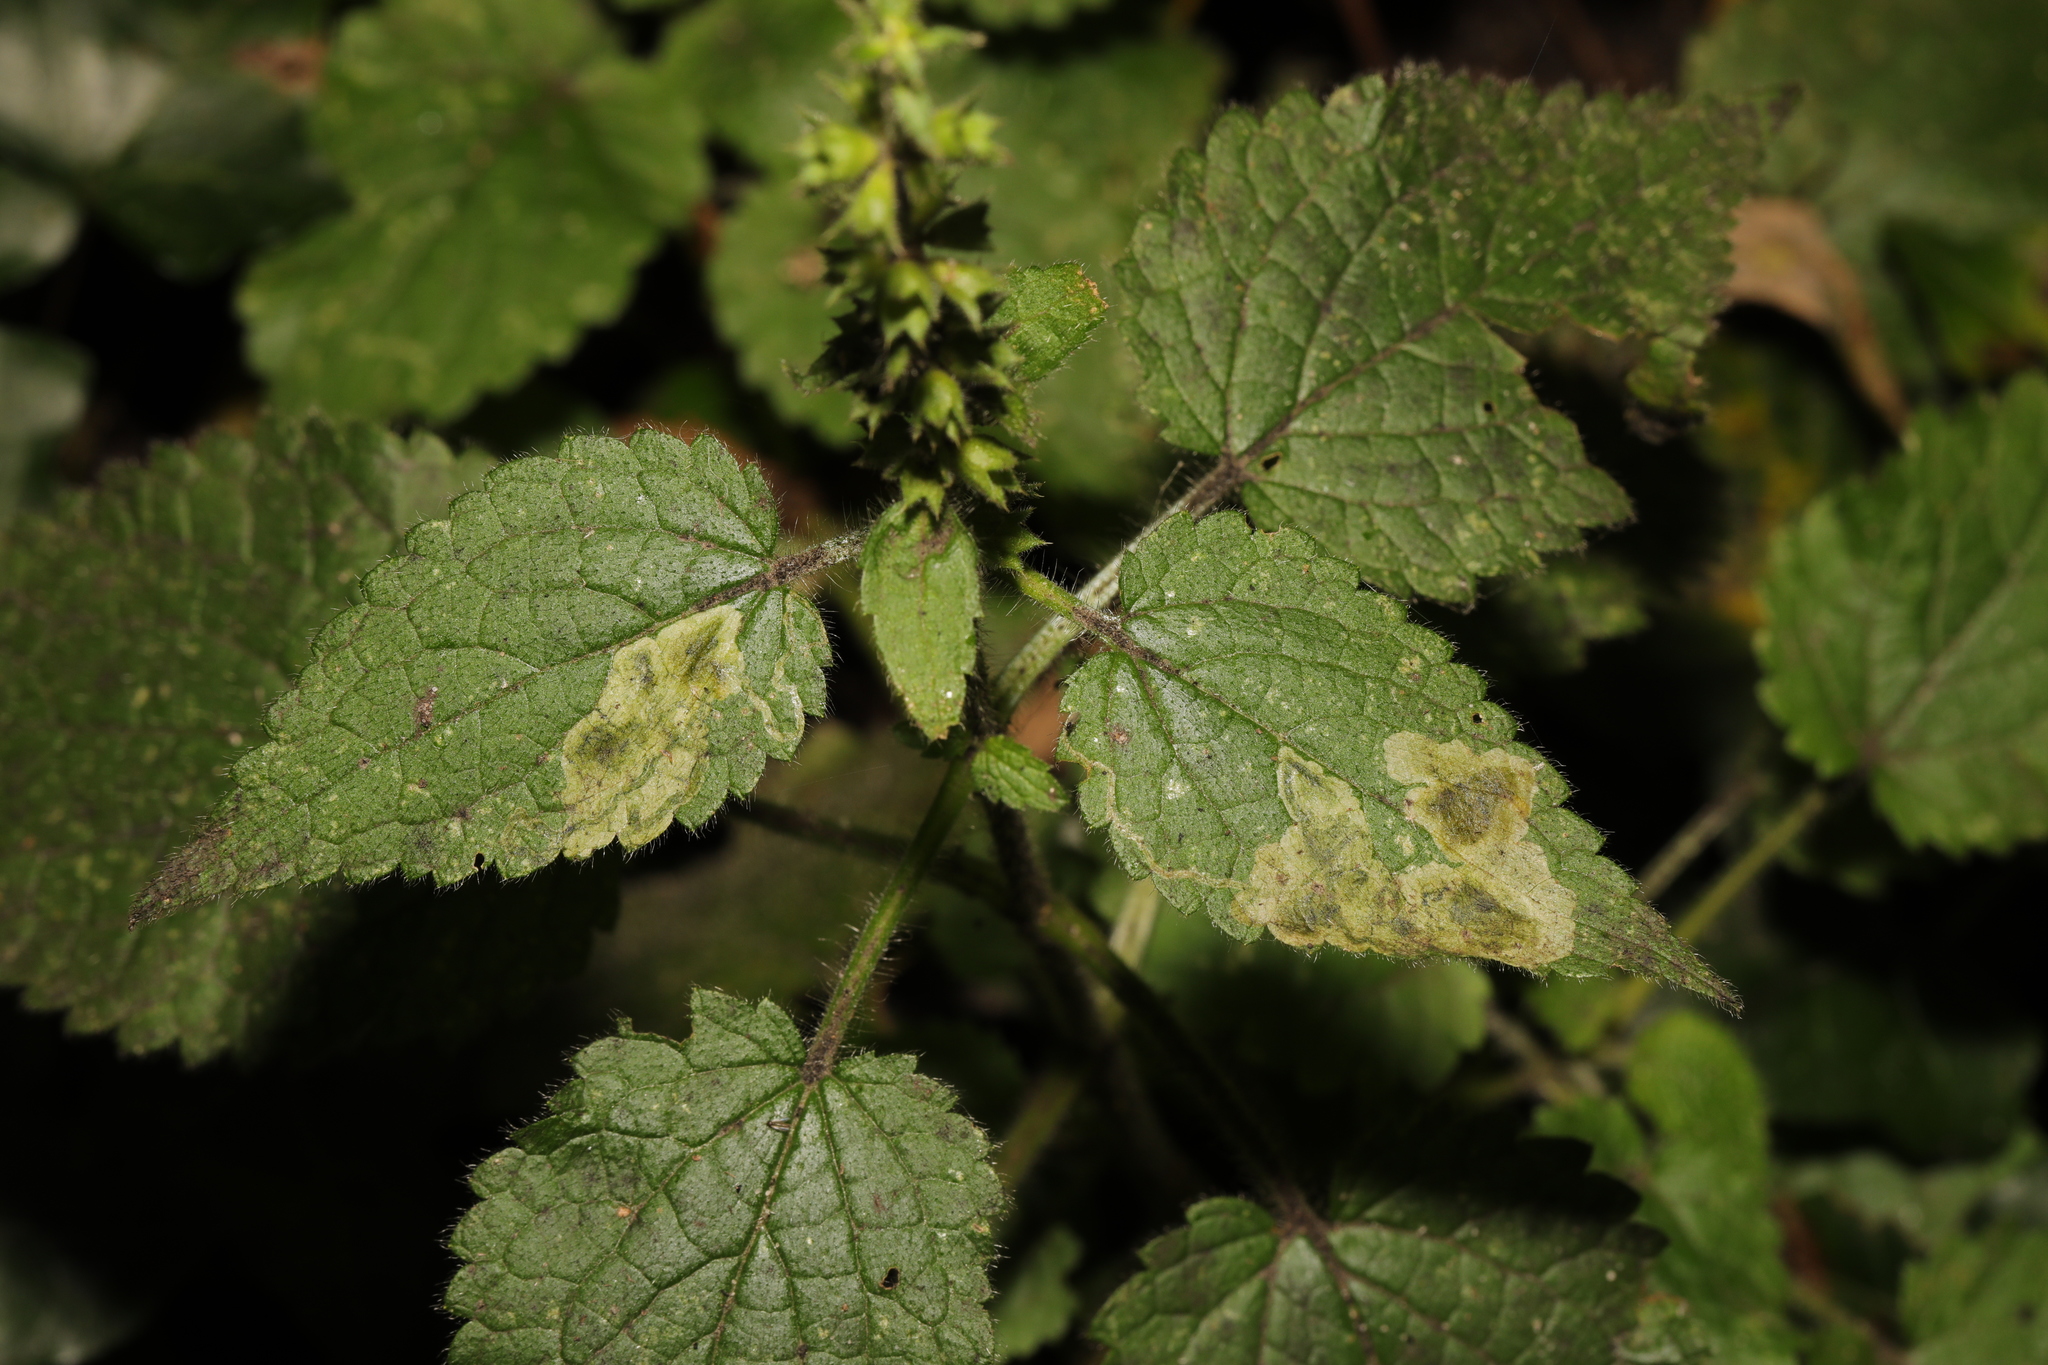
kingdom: Animalia
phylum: Arthropoda
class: Insecta
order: Diptera
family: Agromyzidae
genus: Amauromyza
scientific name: Amauromyza labiatarum
